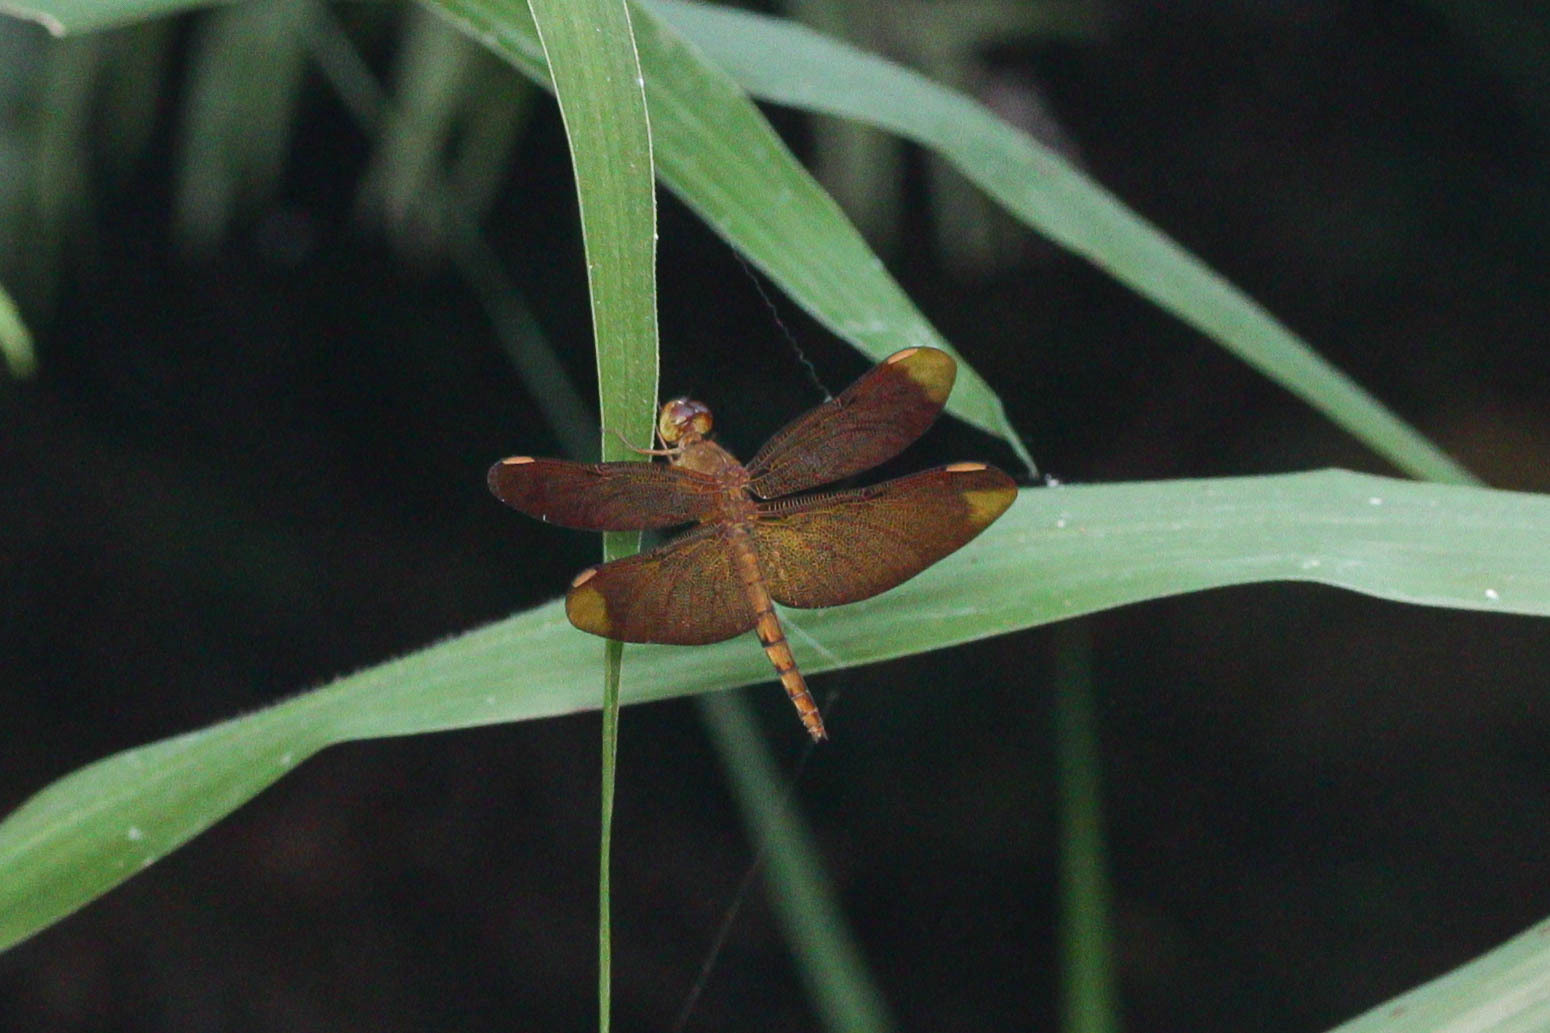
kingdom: Animalia
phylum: Arthropoda
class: Insecta
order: Odonata
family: Libellulidae
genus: Neurothemis
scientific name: Neurothemis fulvia
